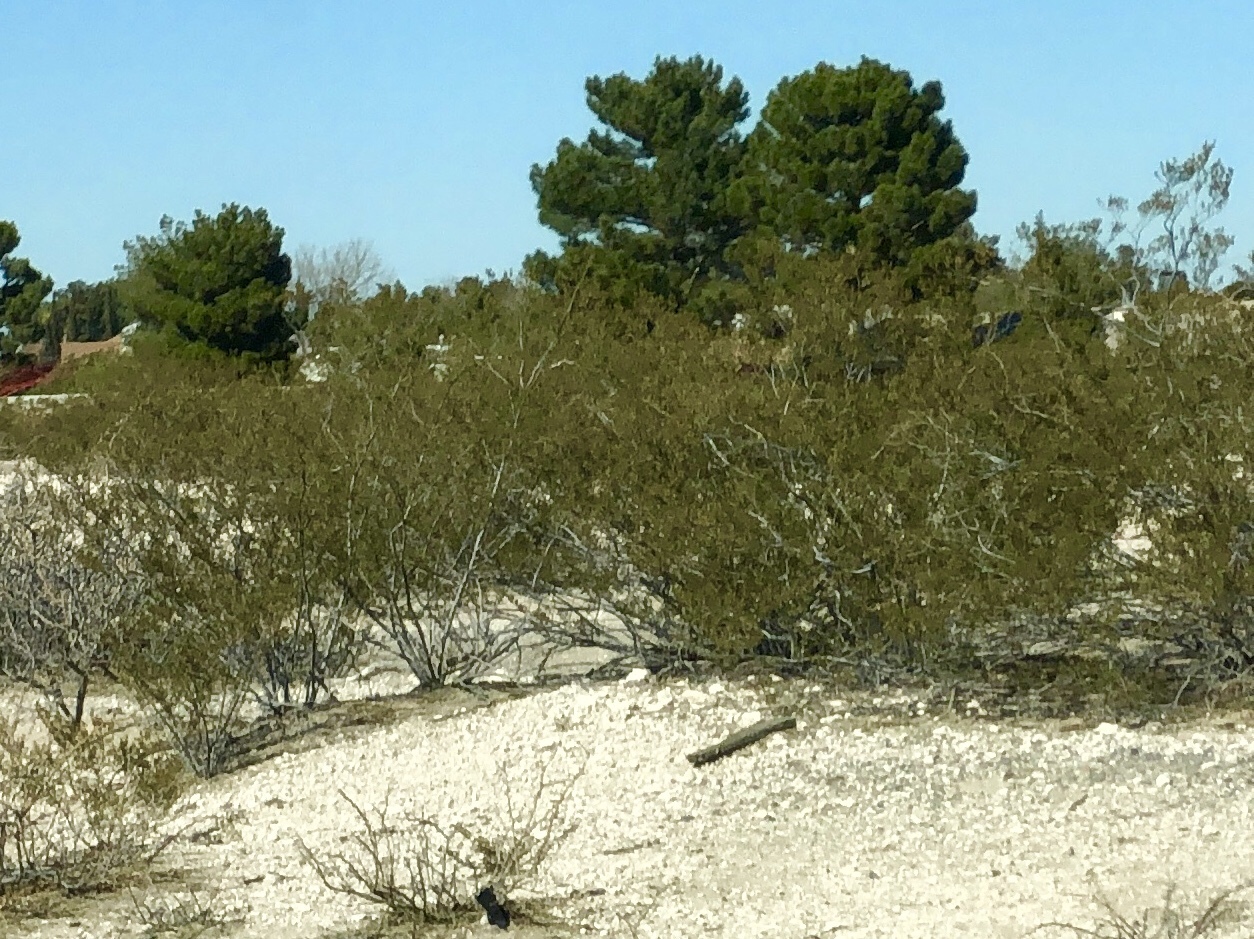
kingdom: Plantae
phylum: Tracheophyta
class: Magnoliopsida
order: Zygophyllales
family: Zygophyllaceae
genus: Larrea
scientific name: Larrea tridentata
